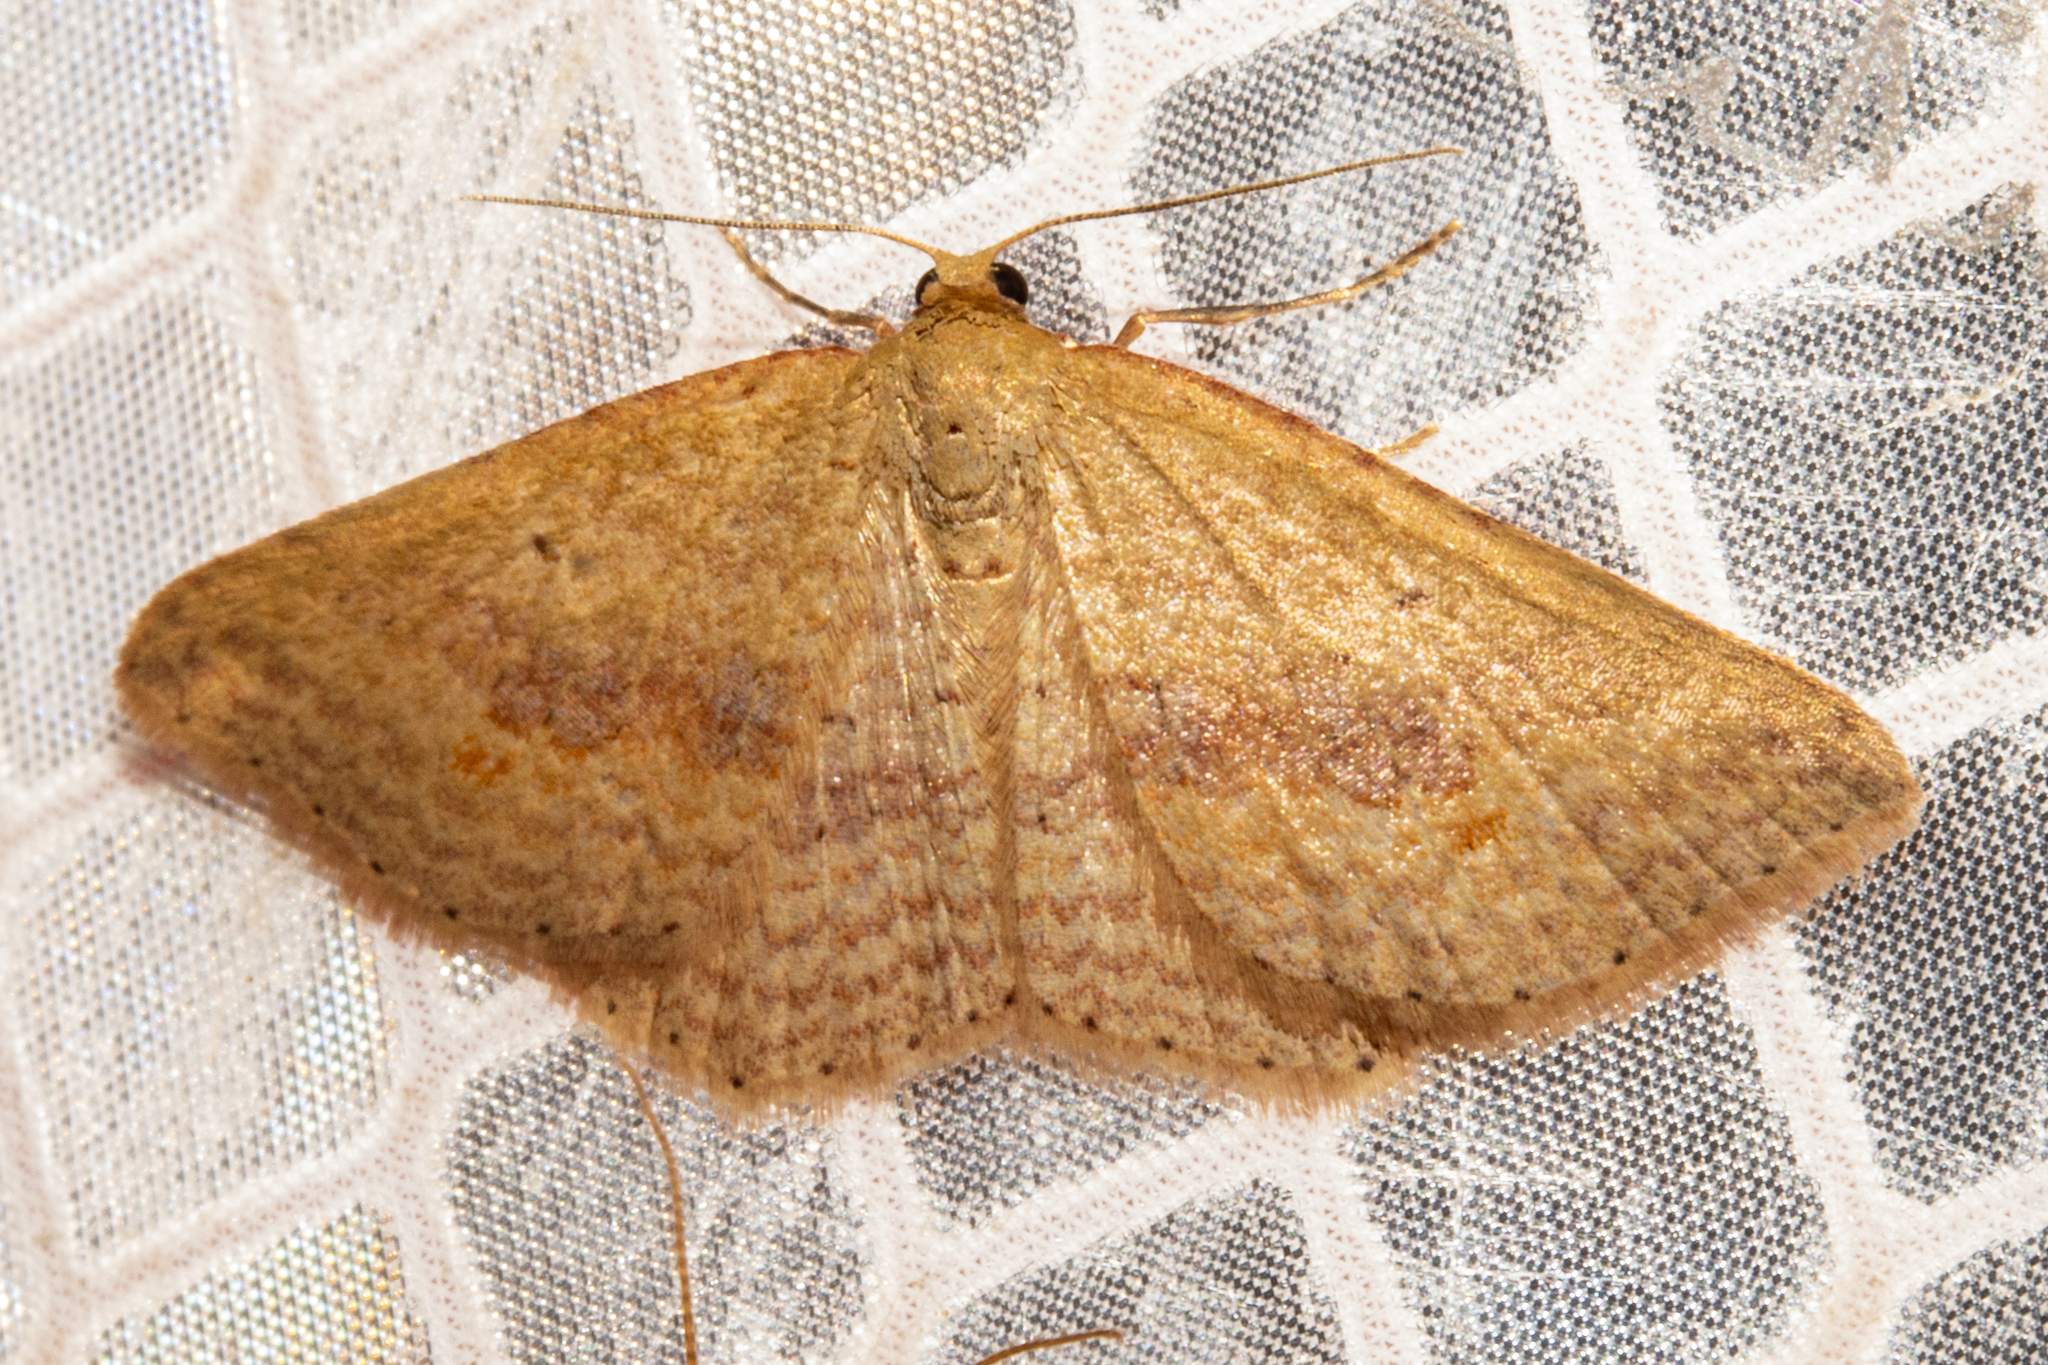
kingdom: Animalia
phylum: Arthropoda
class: Insecta
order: Lepidoptera
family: Geometridae
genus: Epicyme
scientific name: Epicyme rubropunctaria
